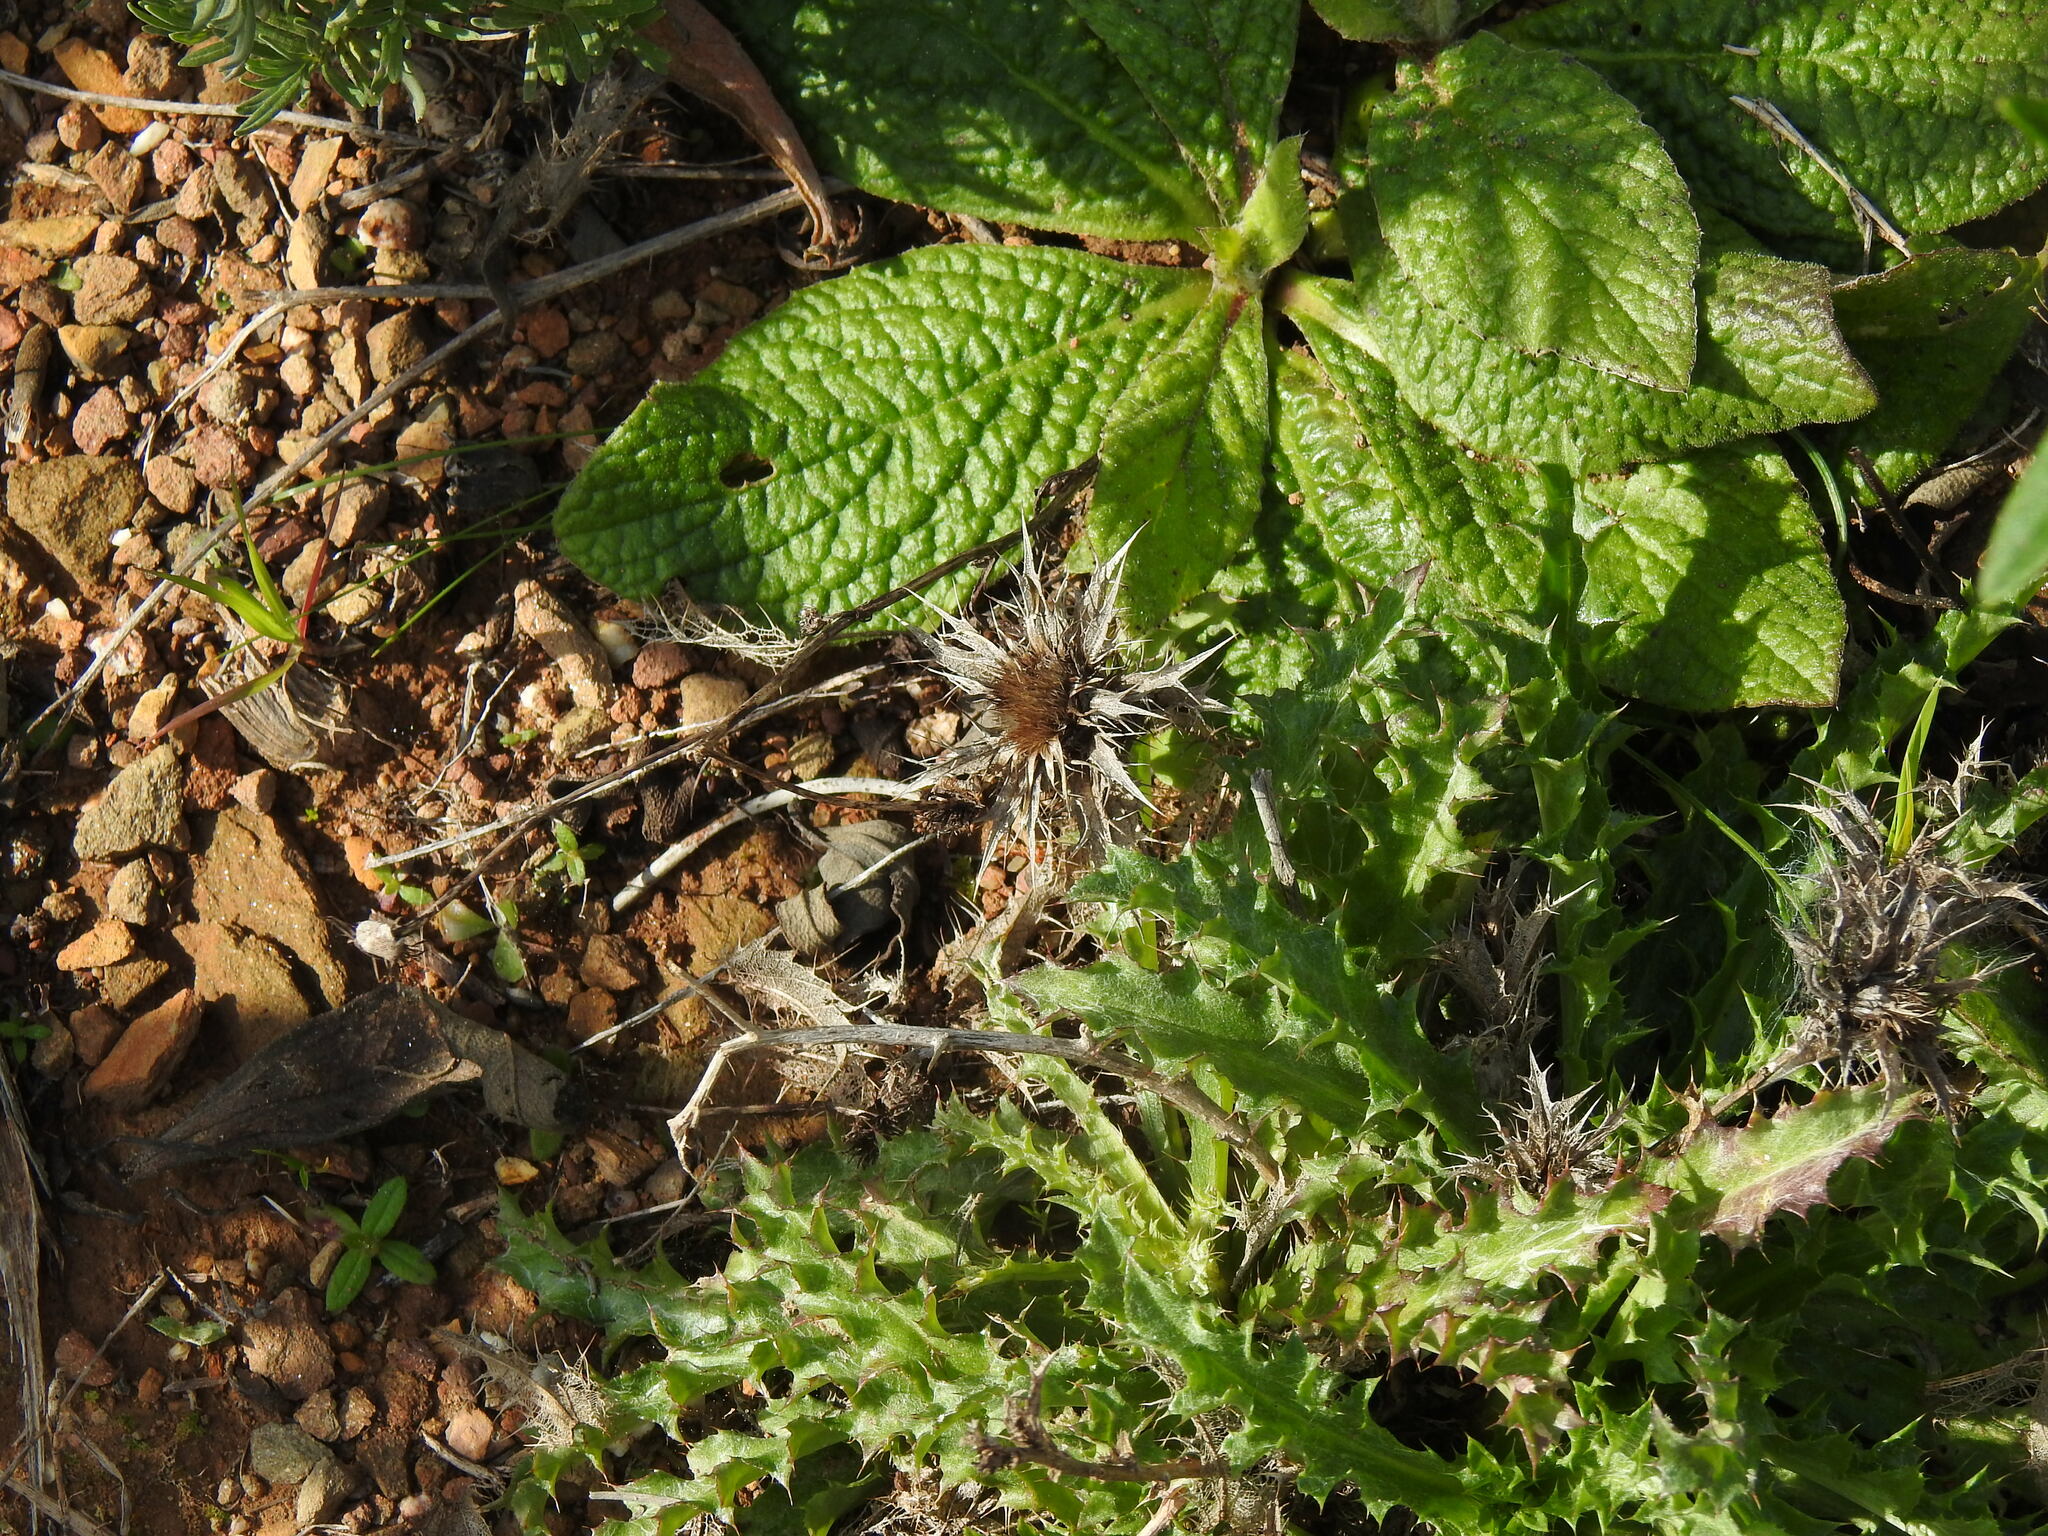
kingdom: Plantae
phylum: Tracheophyta
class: Magnoliopsida
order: Asterales
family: Asteraceae
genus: Carlina
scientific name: Carlina hispanica
